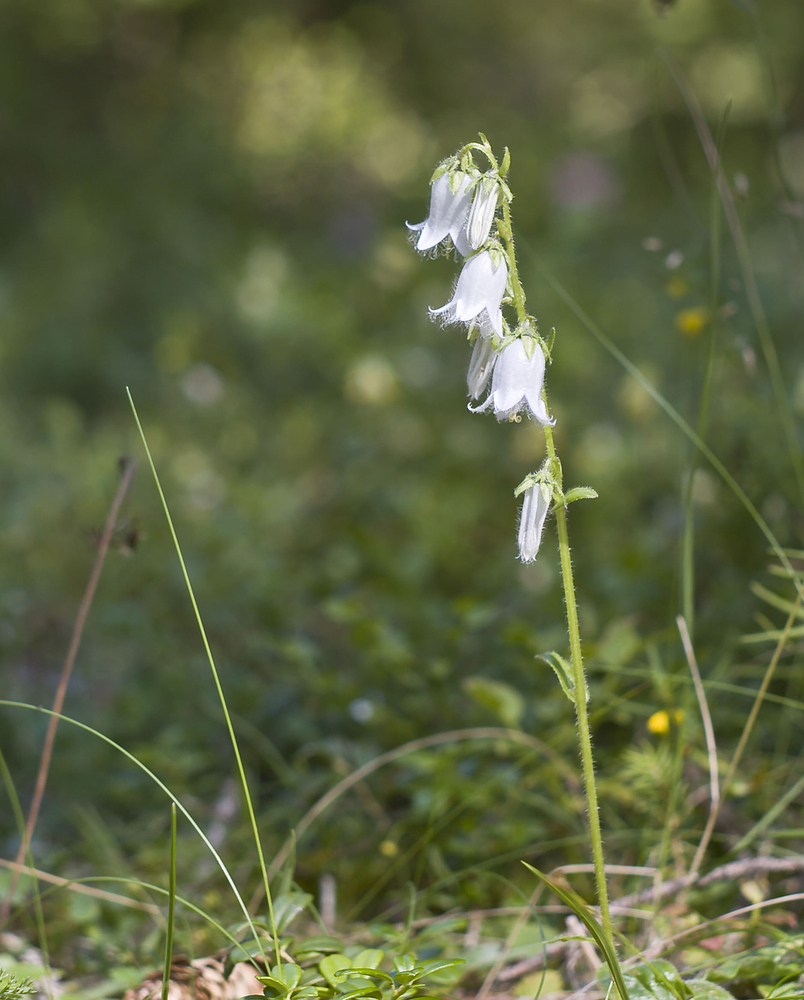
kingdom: Plantae
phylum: Tracheophyta
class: Magnoliopsida
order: Asterales
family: Campanulaceae
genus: Campanula
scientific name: Campanula barbata
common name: Bearded bellflower
